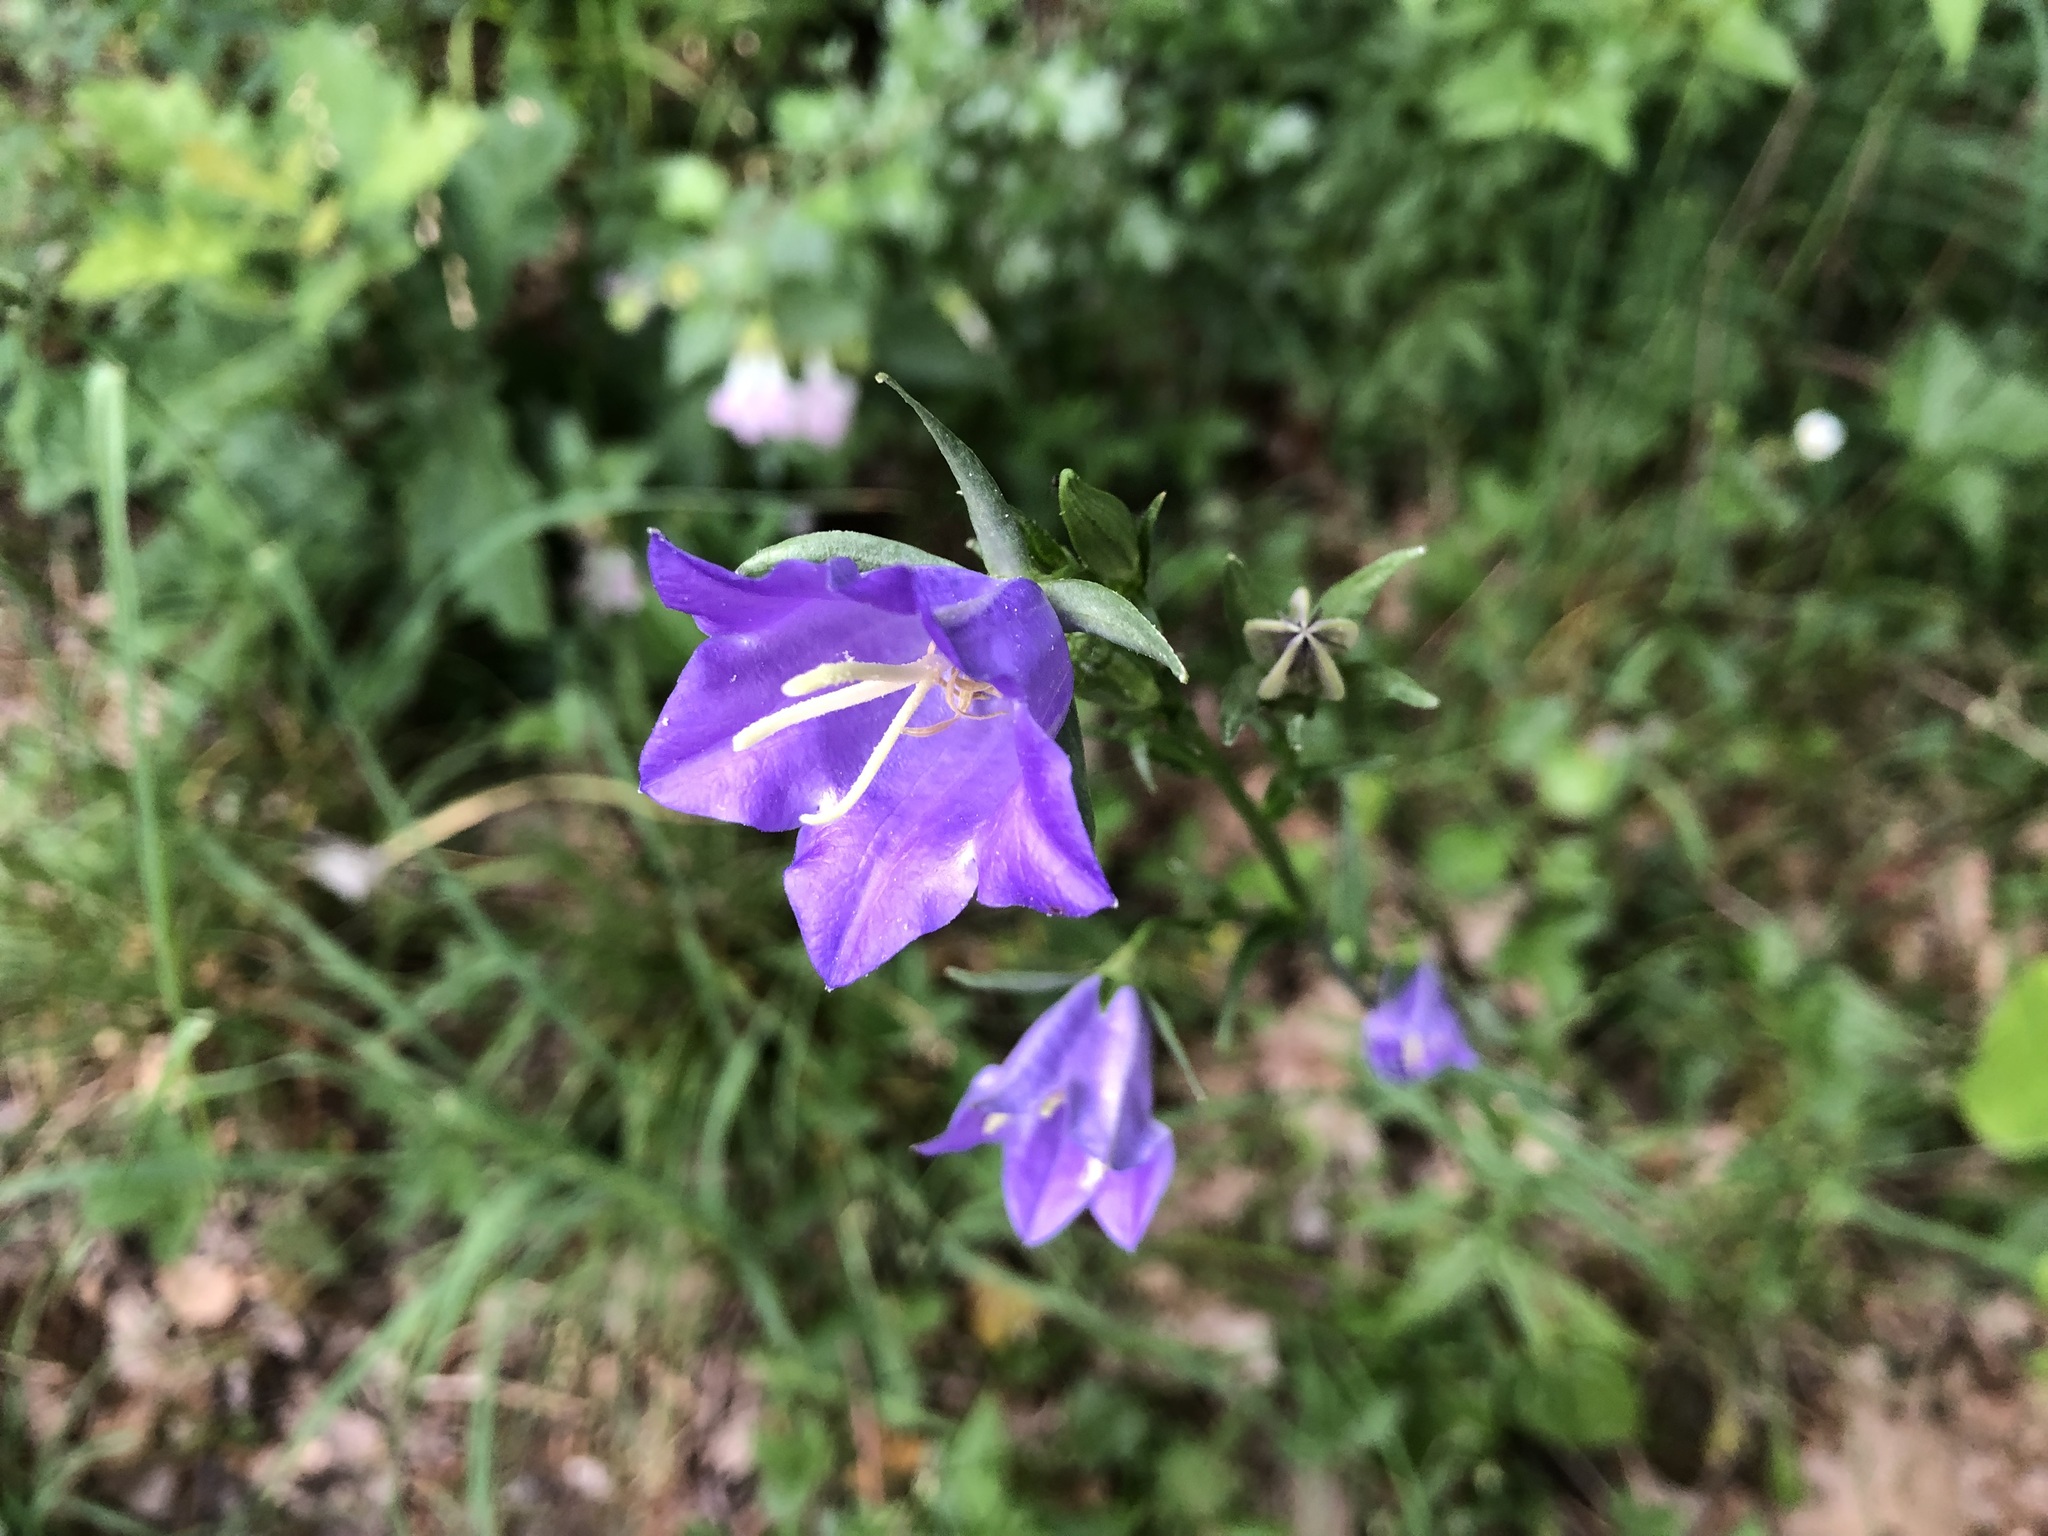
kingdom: Plantae
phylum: Tracheophyta
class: Magnoliopsida
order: Asterales
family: Campanulaceae
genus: Campanula
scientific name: Campanula persicifolia
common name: Peach-leaved bellflower
